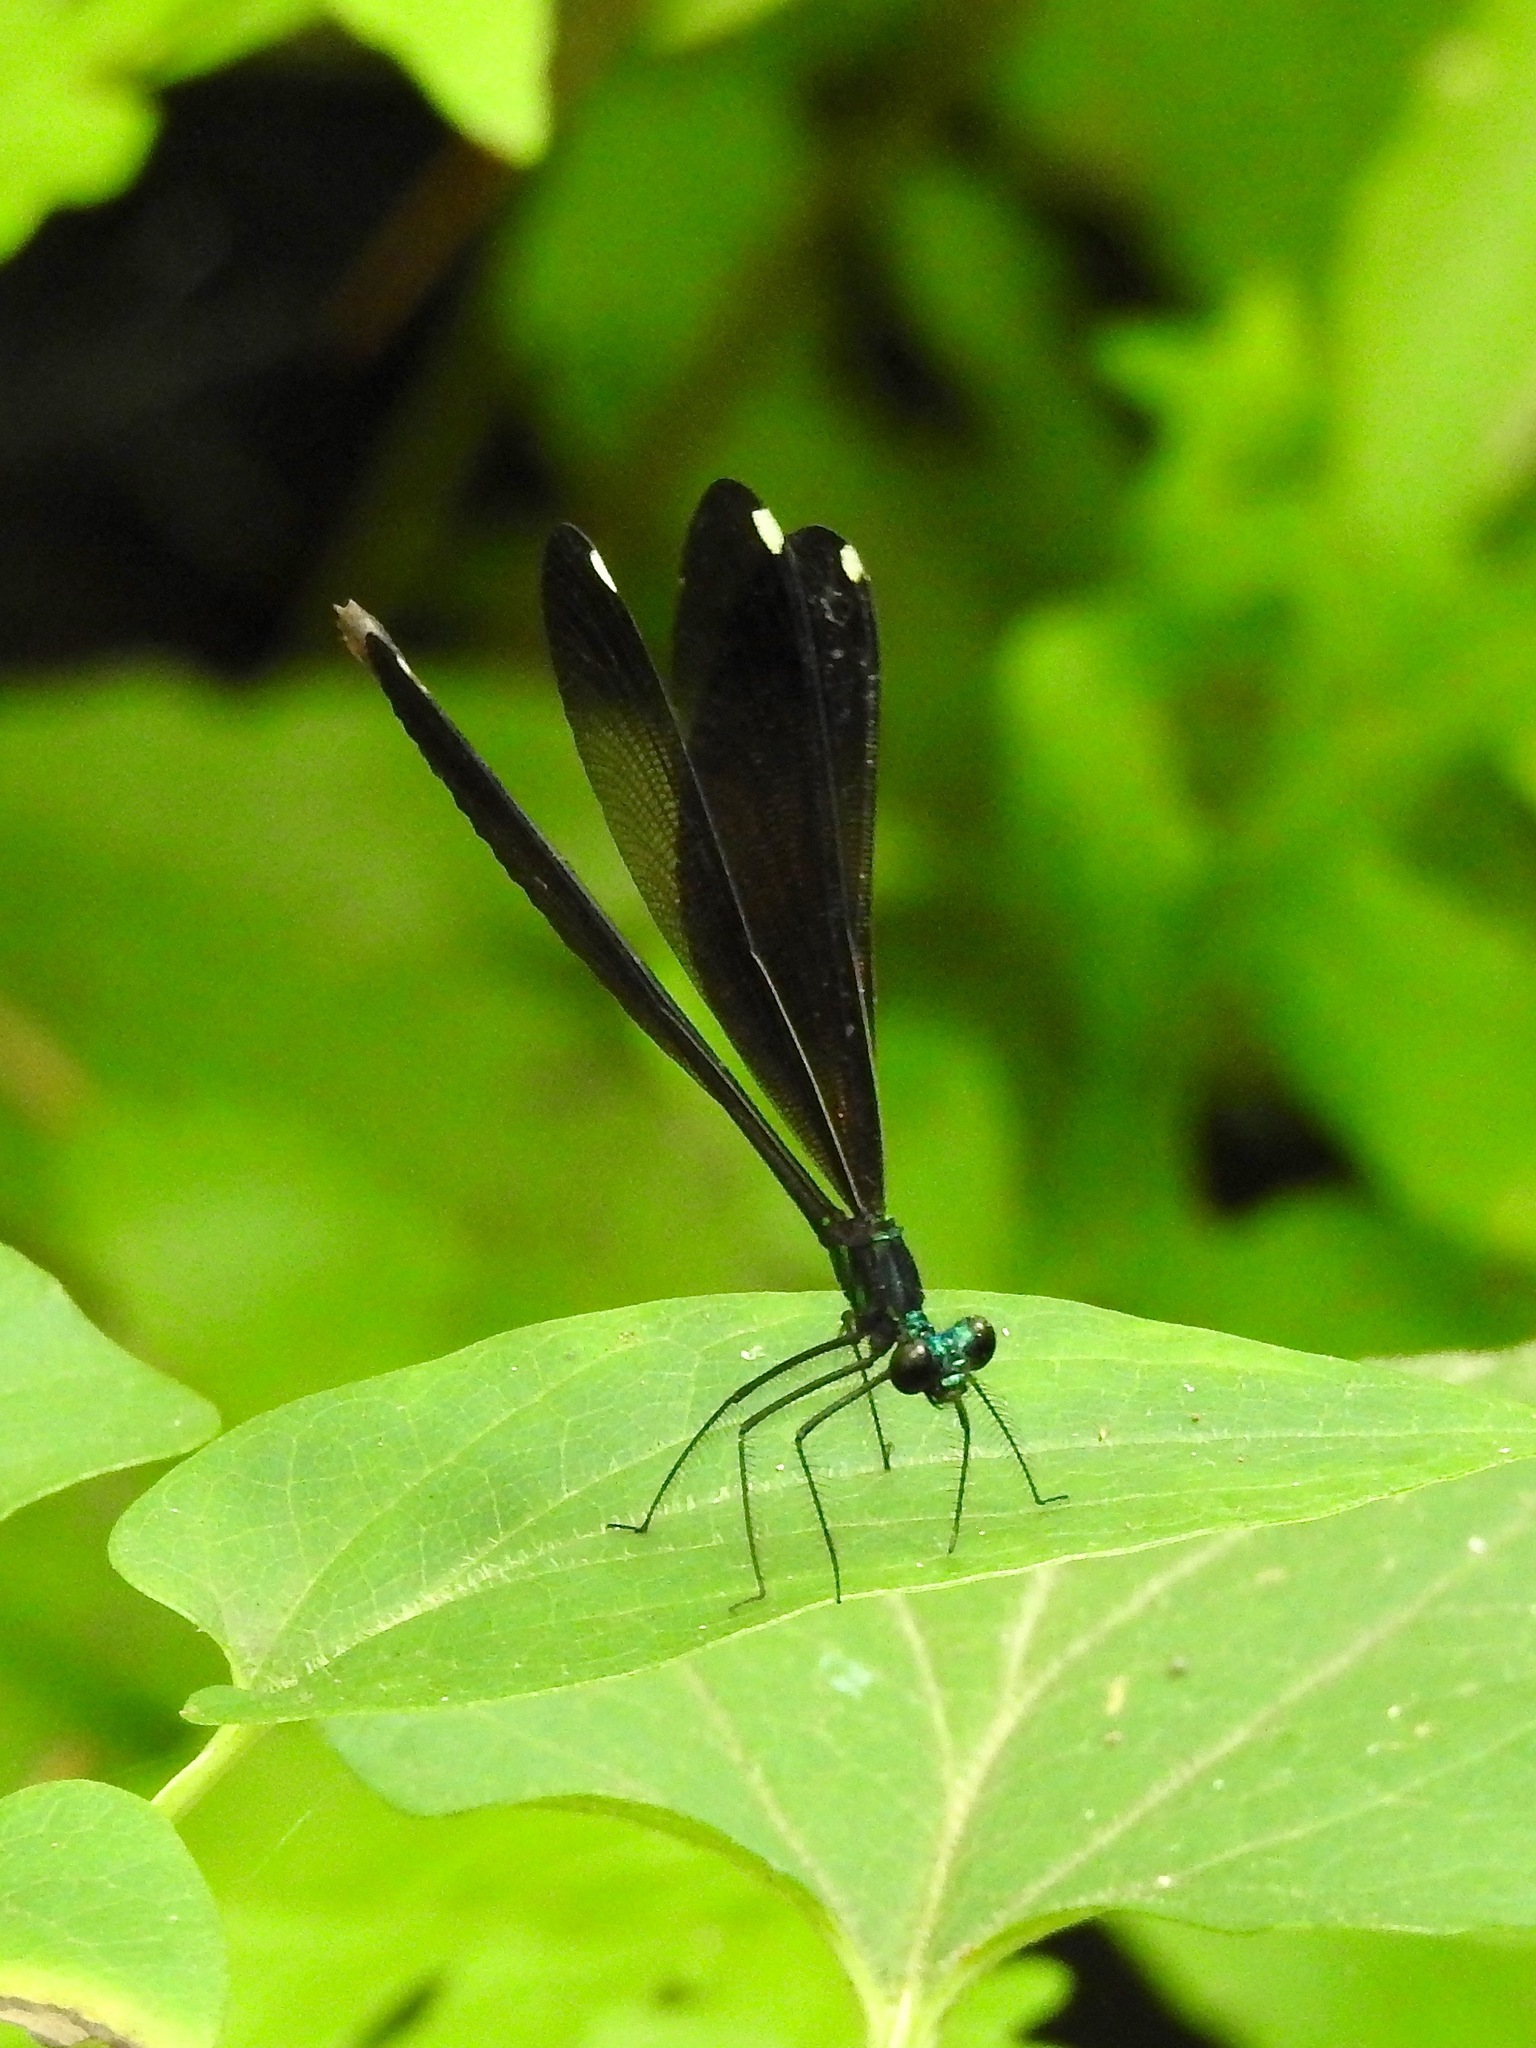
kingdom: Animalia
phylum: Arthropoda
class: Insecta
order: Odonata
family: Calopterygidae
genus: Calopteryx
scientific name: Calopteryx maculata
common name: Ebony jewelwing
